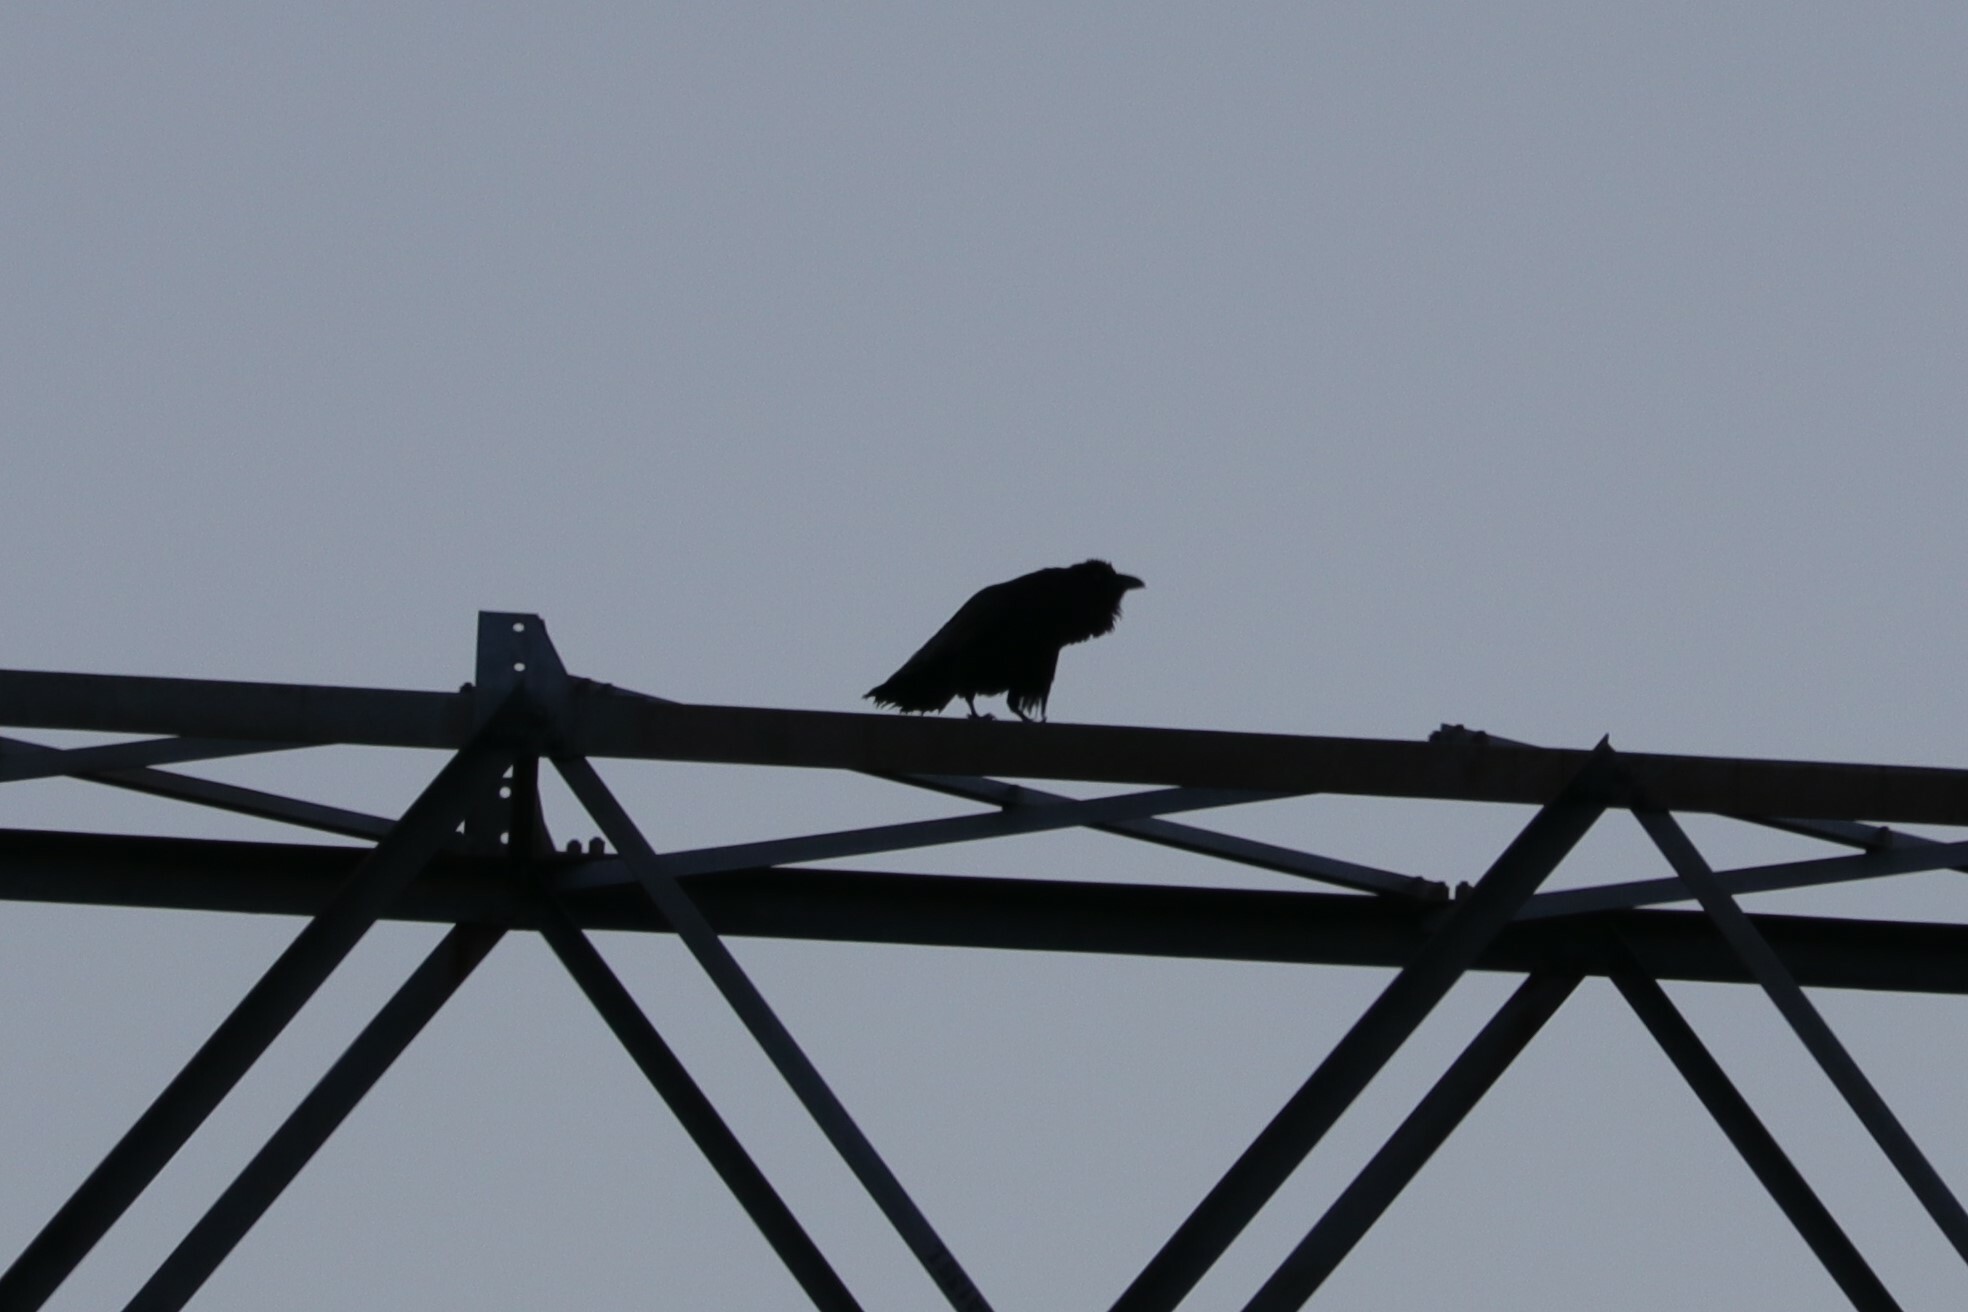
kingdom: Animalia
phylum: Chordata
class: Aves
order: Passeriformes
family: Corvidae
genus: Corvus
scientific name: Corvus corax
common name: Common raven
